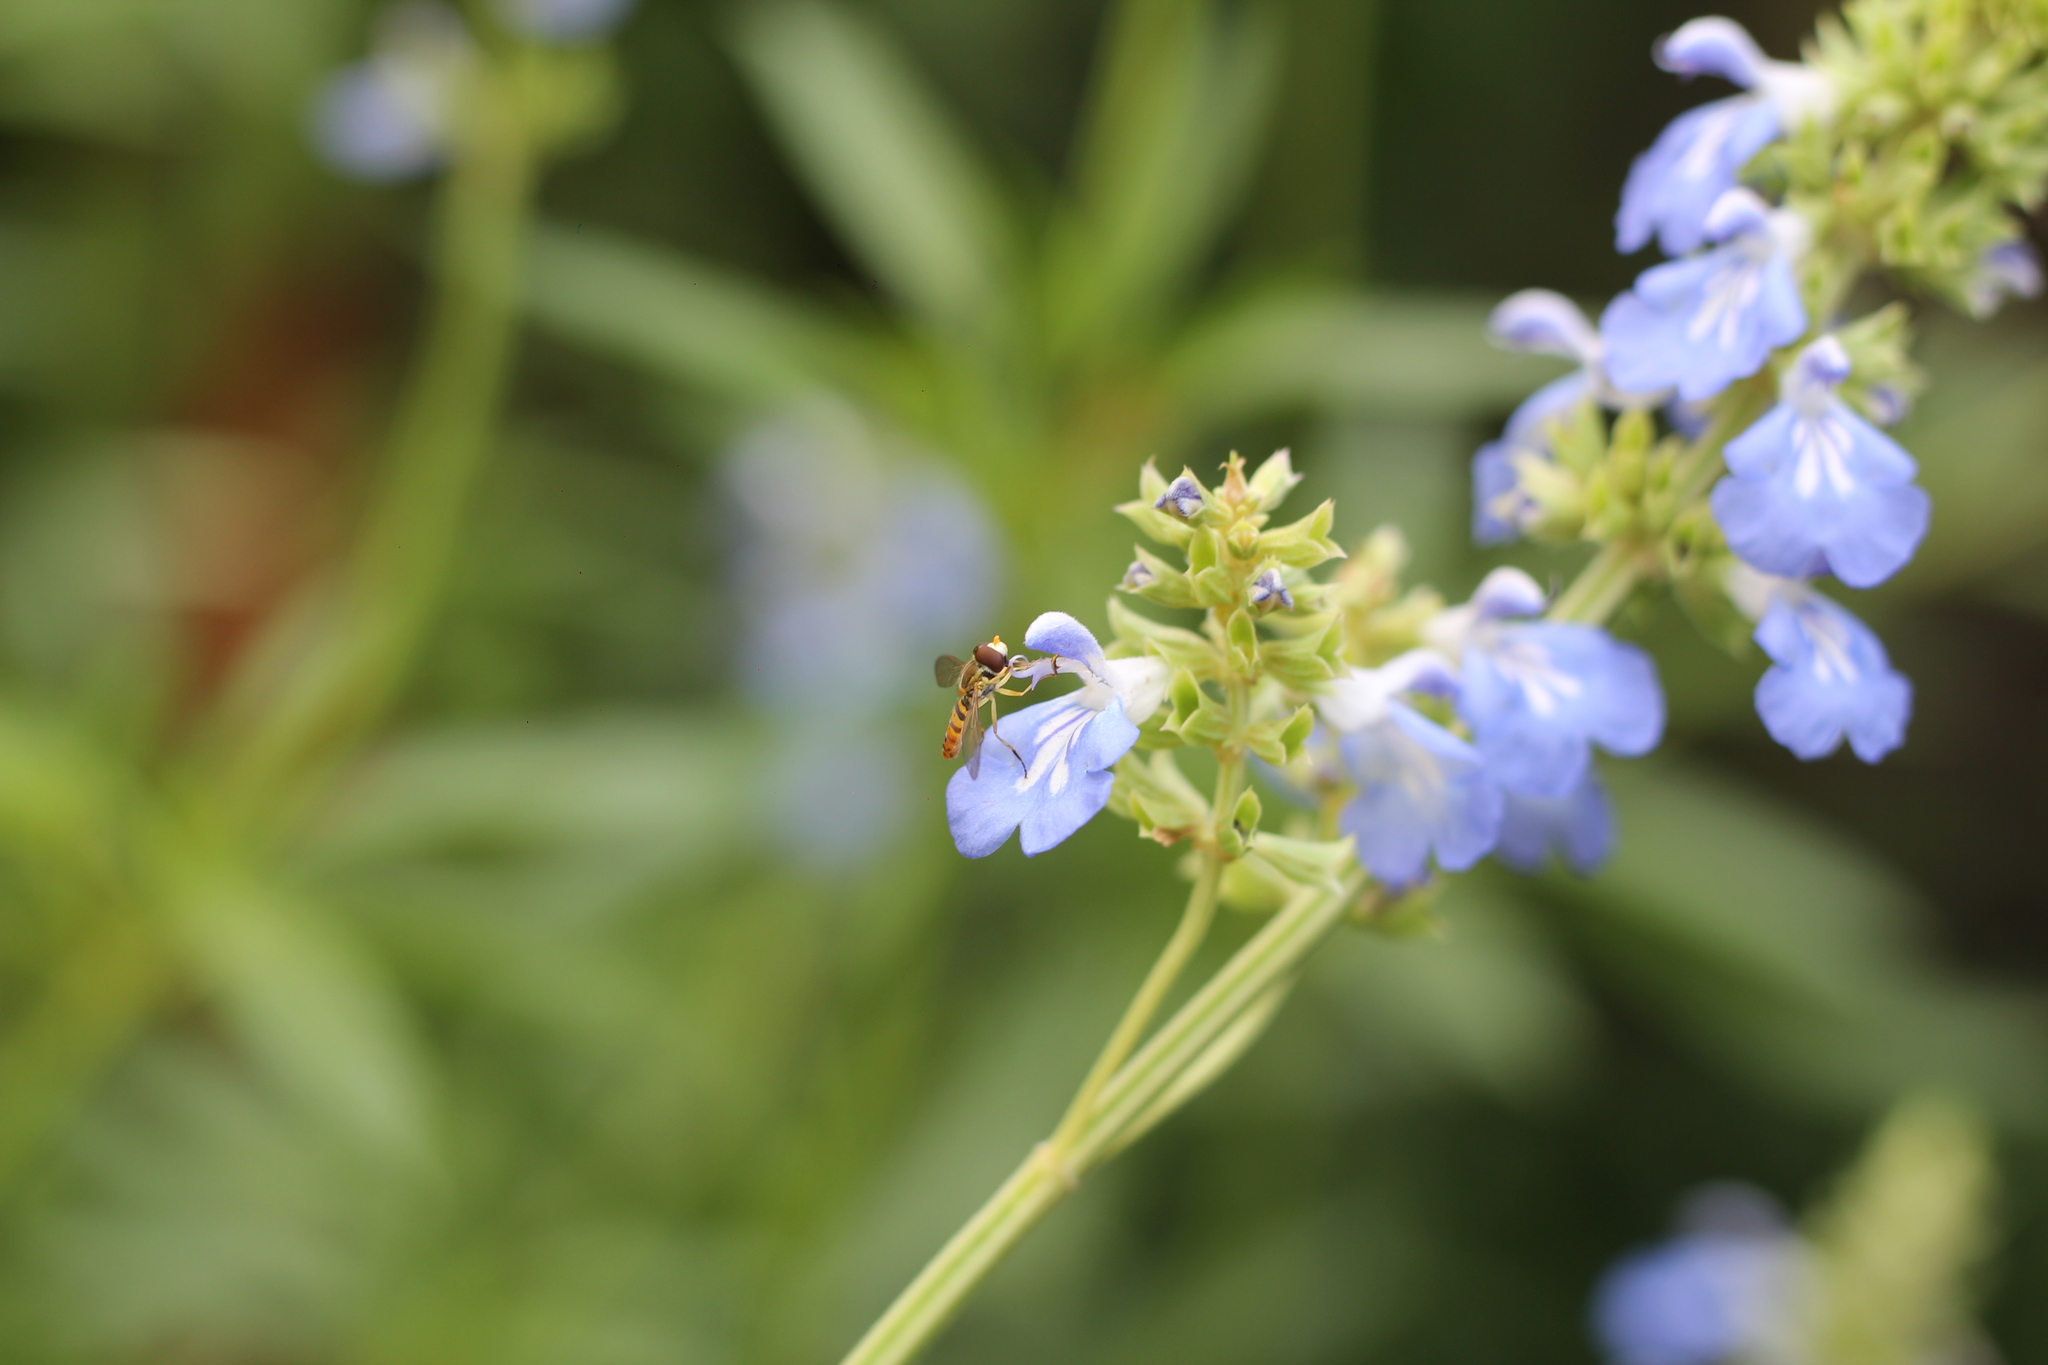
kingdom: Animalia
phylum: Arthropoda
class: Insecta
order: Diptera
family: Syrphidae
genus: Toxomerus
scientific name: Toxomerus
